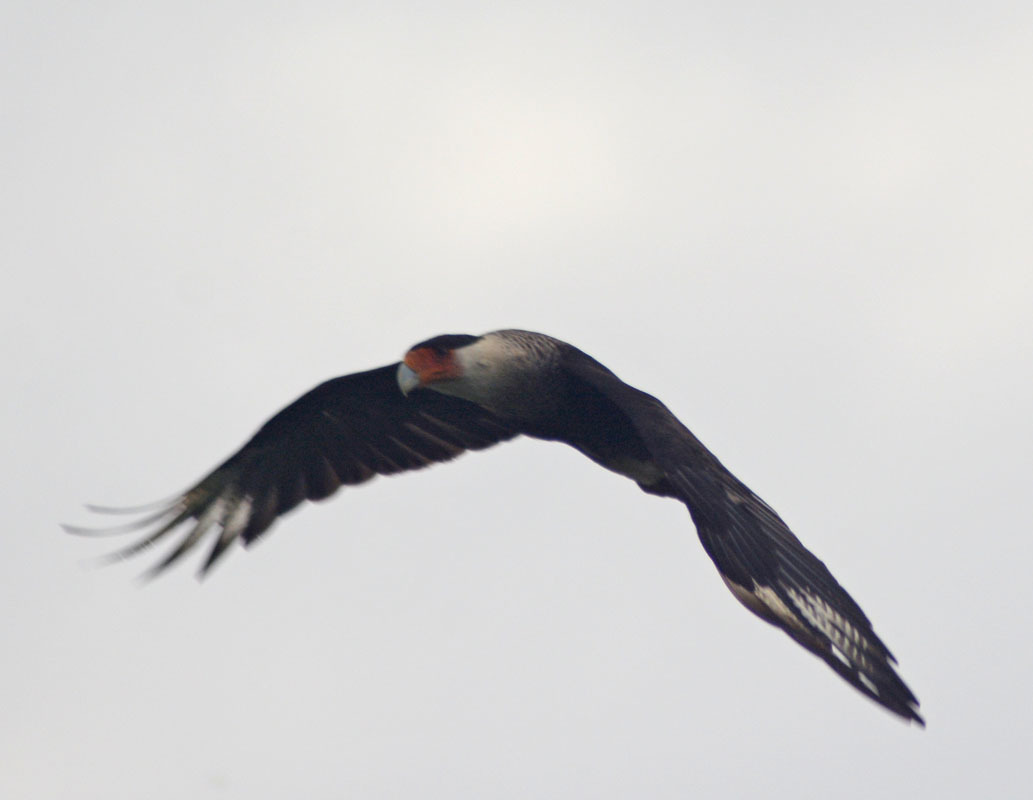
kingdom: Animalia
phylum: Chordata
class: Aves
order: Falconiformes
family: Falconidae
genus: Caracara
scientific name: Caracara plancus
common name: Southern caracara
